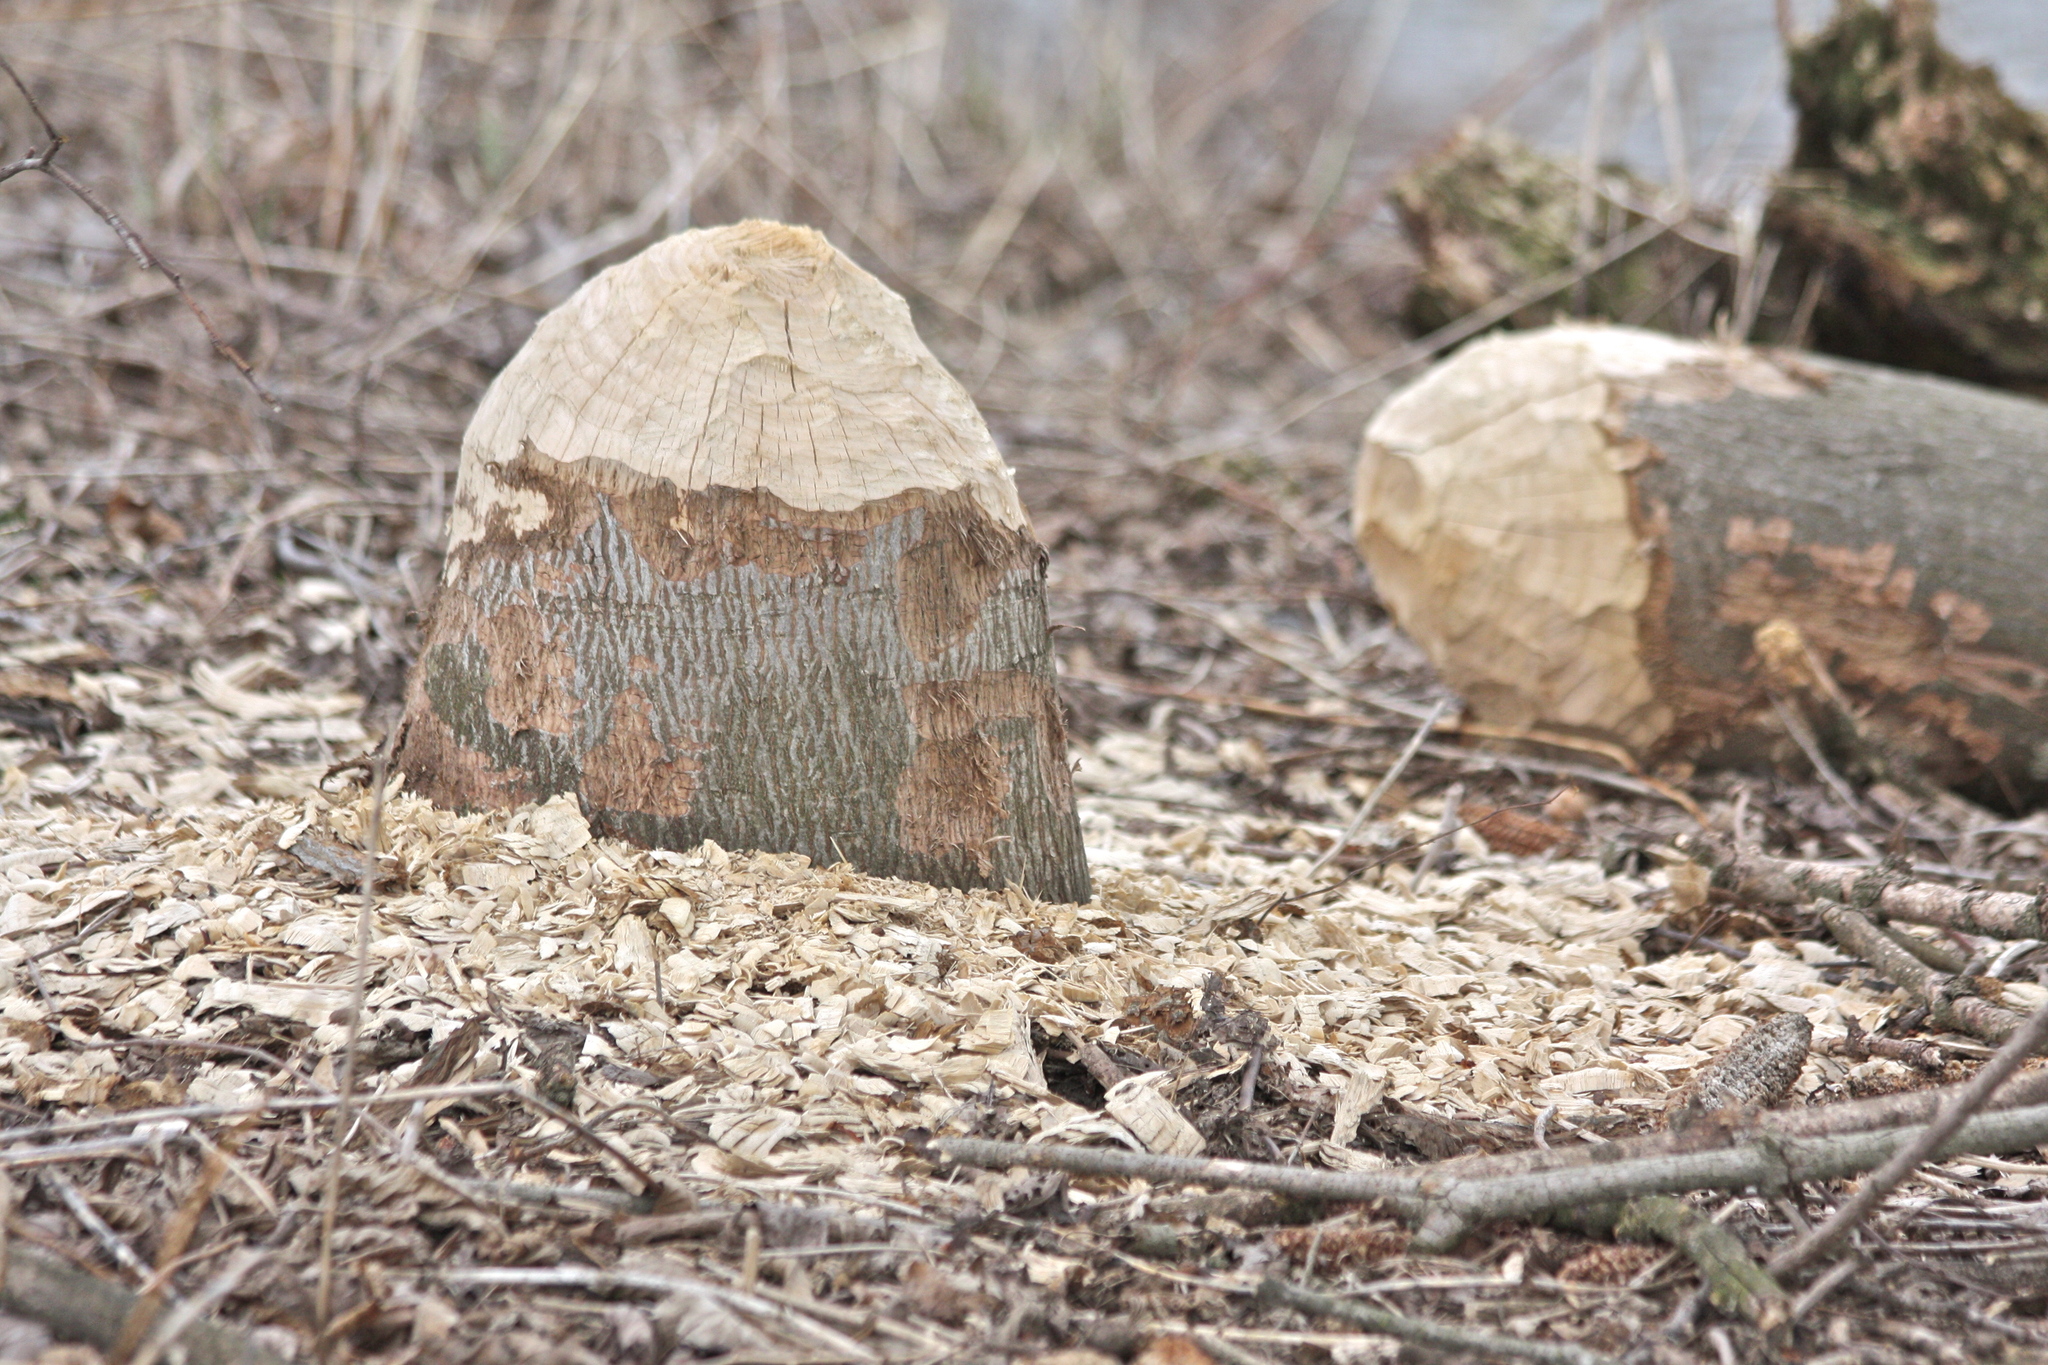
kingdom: Animalia
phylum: Chordata
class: Mammalia
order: Rodentia
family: Castoridae
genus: Castor
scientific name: Castor canadensis
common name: American beaver
